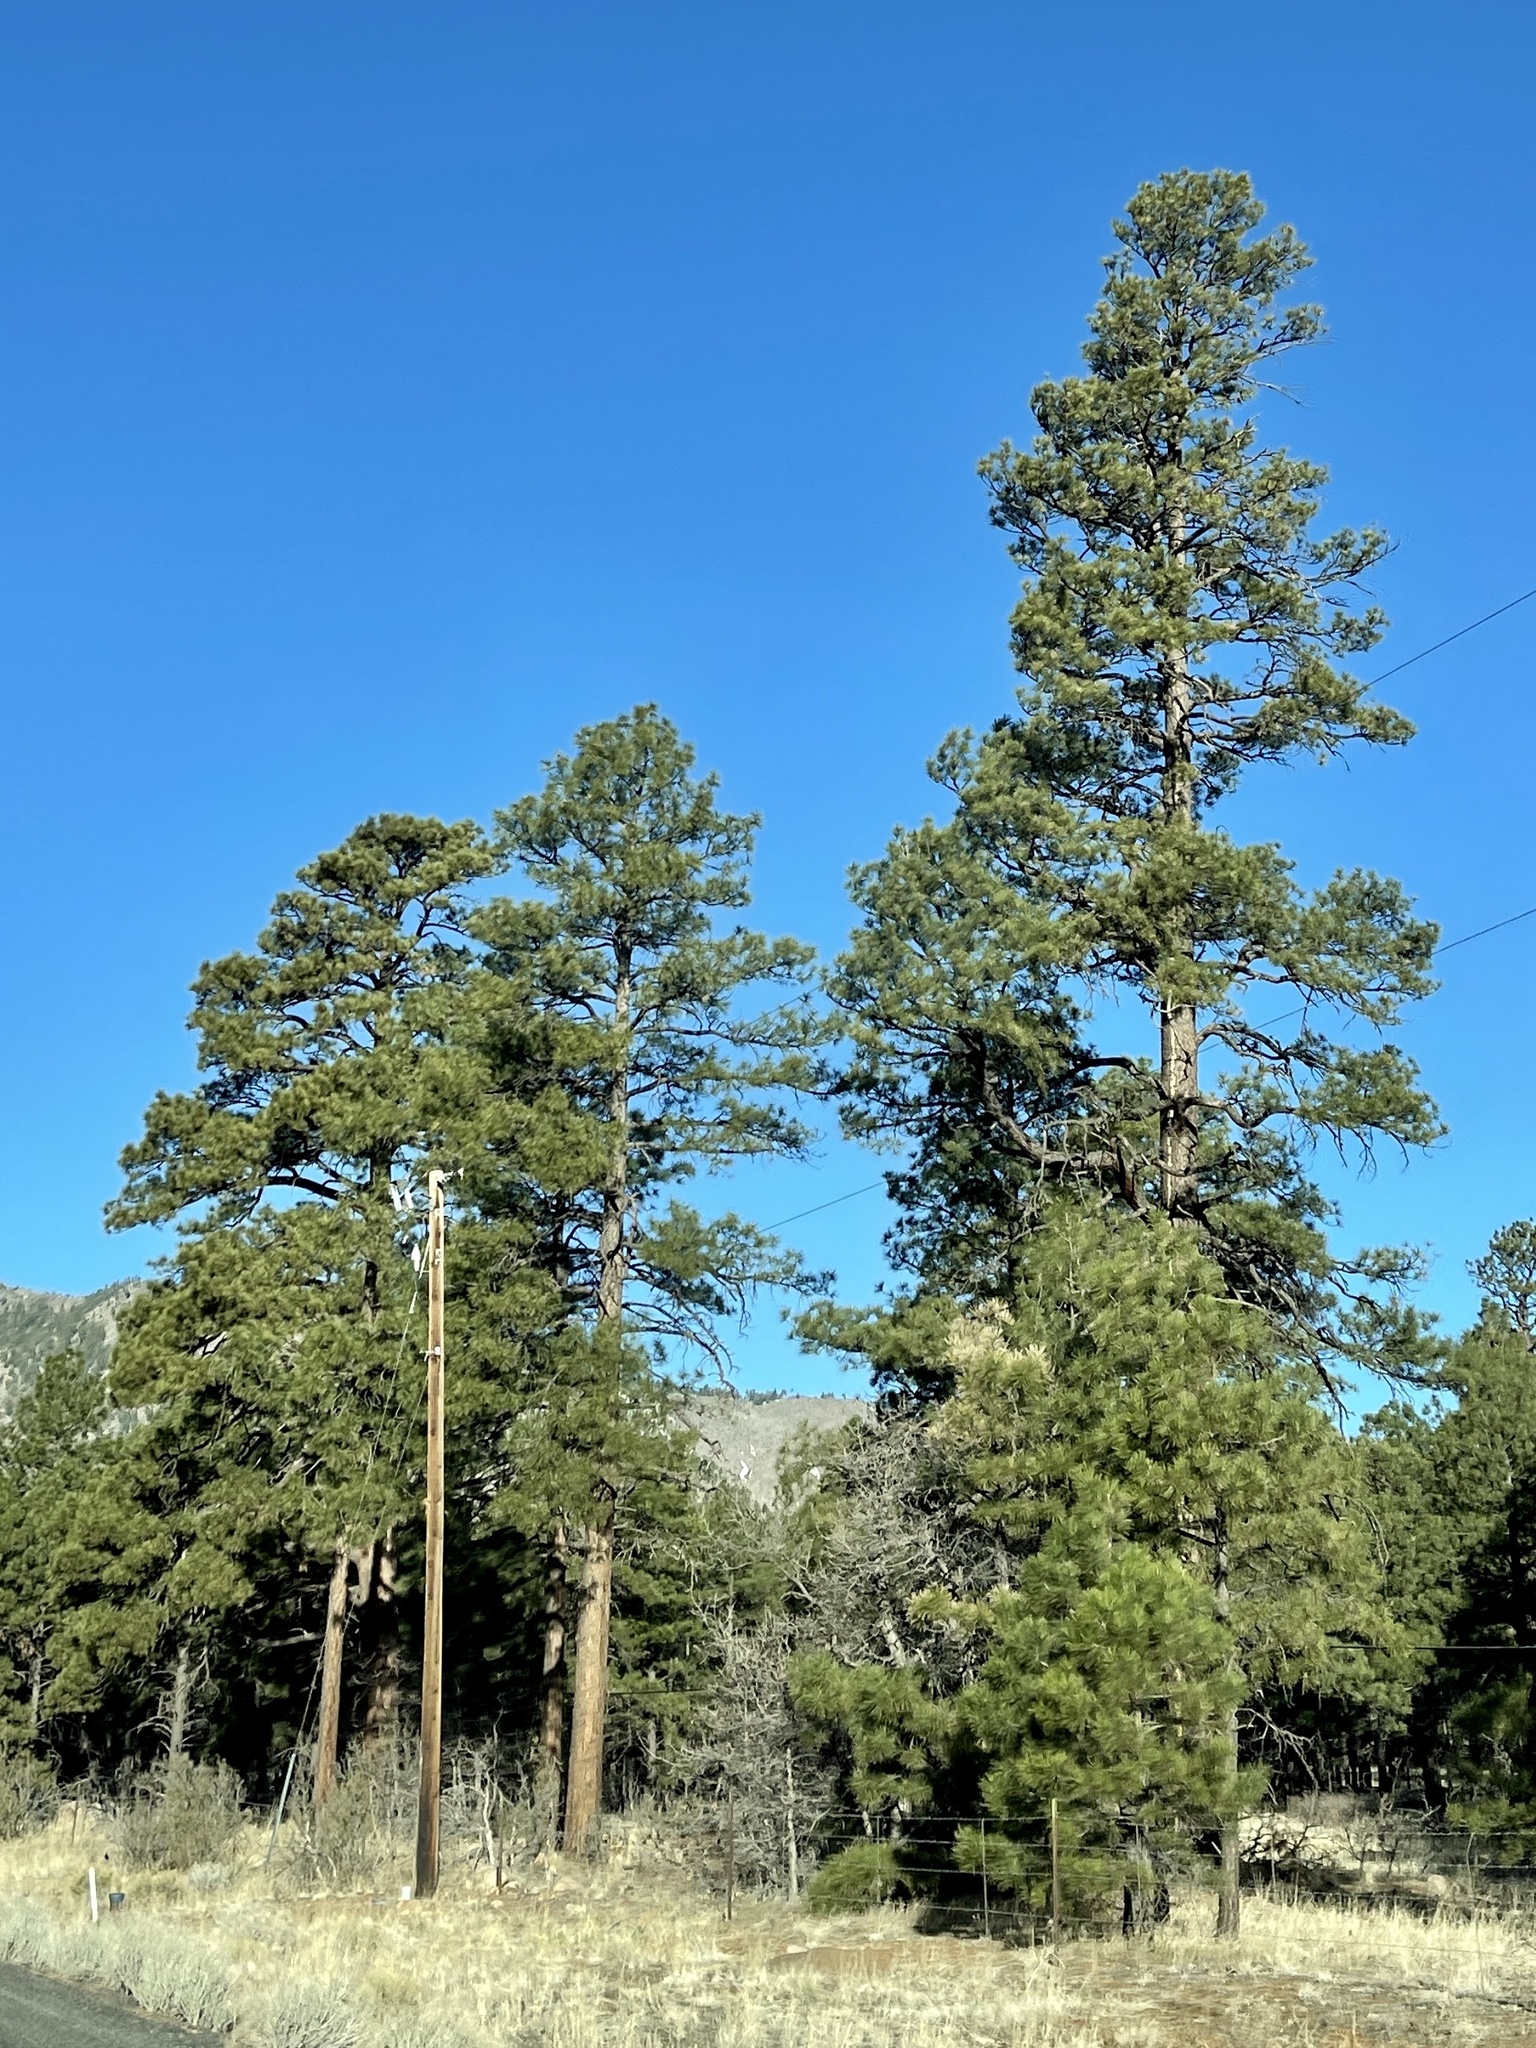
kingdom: Plantae
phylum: Tracheophyta
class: Pinopsida
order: Pinales
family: Pinaceae
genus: Pinus
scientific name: Pinus ponderosa
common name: Western yellow-pine
